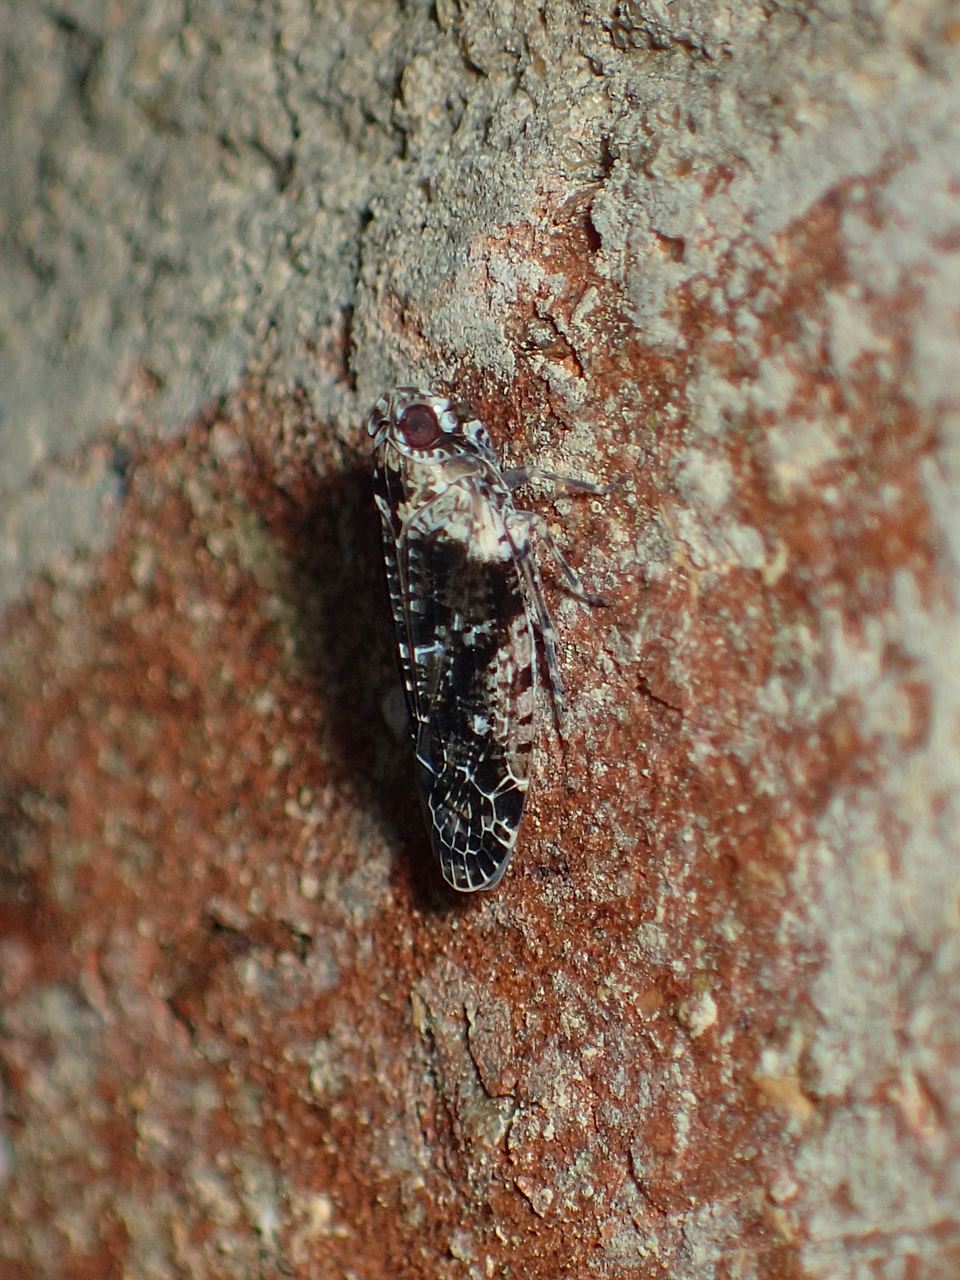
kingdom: Animalia
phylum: Arthropoda
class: Insecta
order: Hemiptera
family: Achilidae
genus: Catonia
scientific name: Catonia nava
